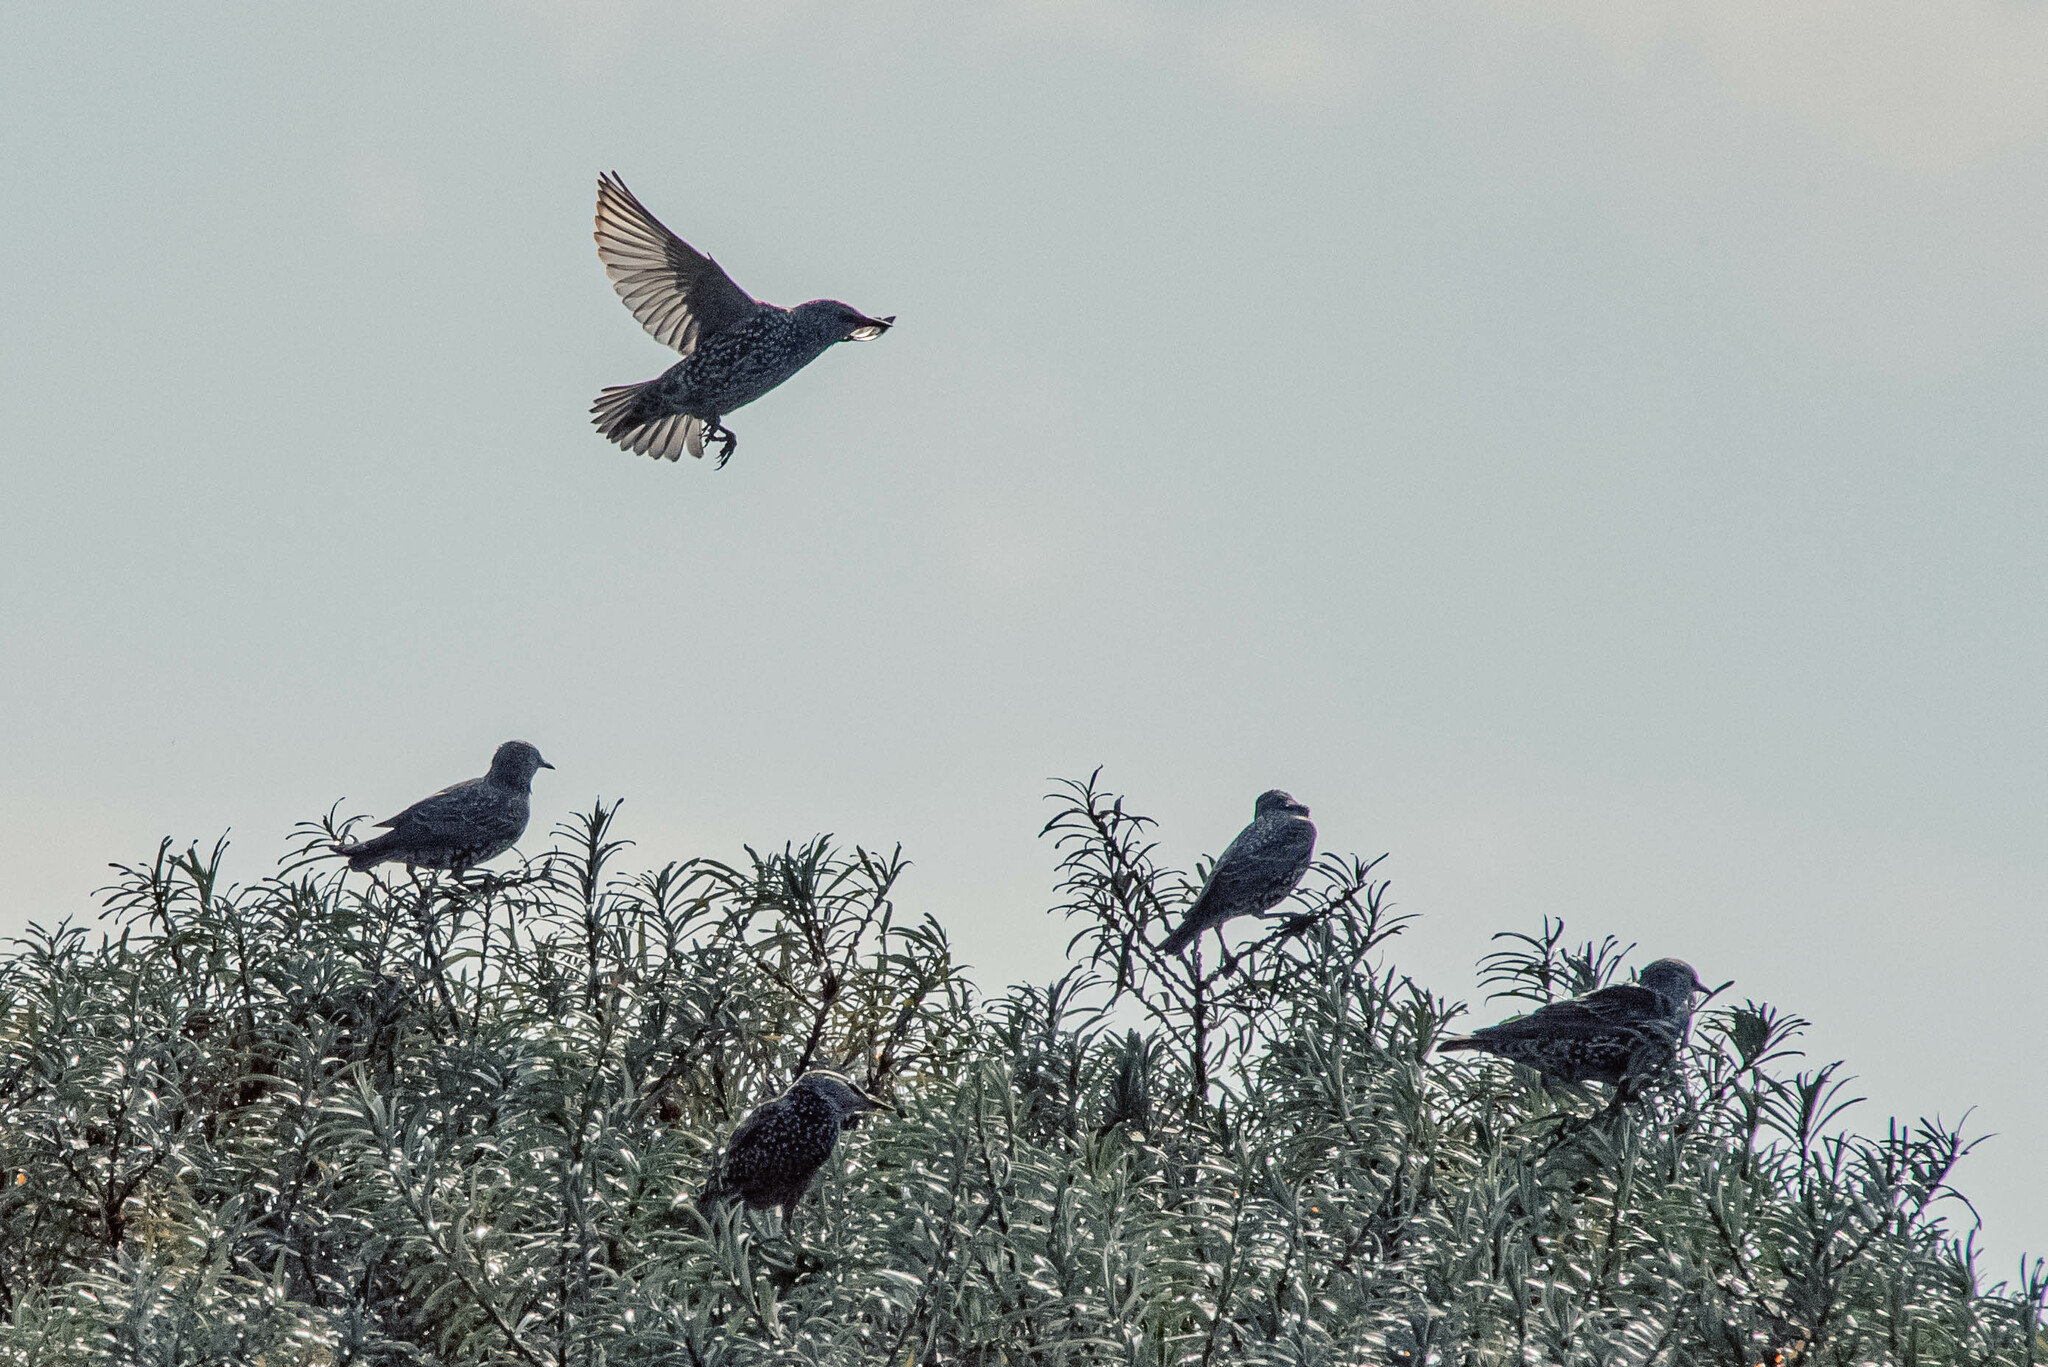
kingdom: Animalia
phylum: Chordata
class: Aves
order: Passeriformes
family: Sturnidae
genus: Sturnus
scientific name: Sturnus vulgaris
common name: Common starling
